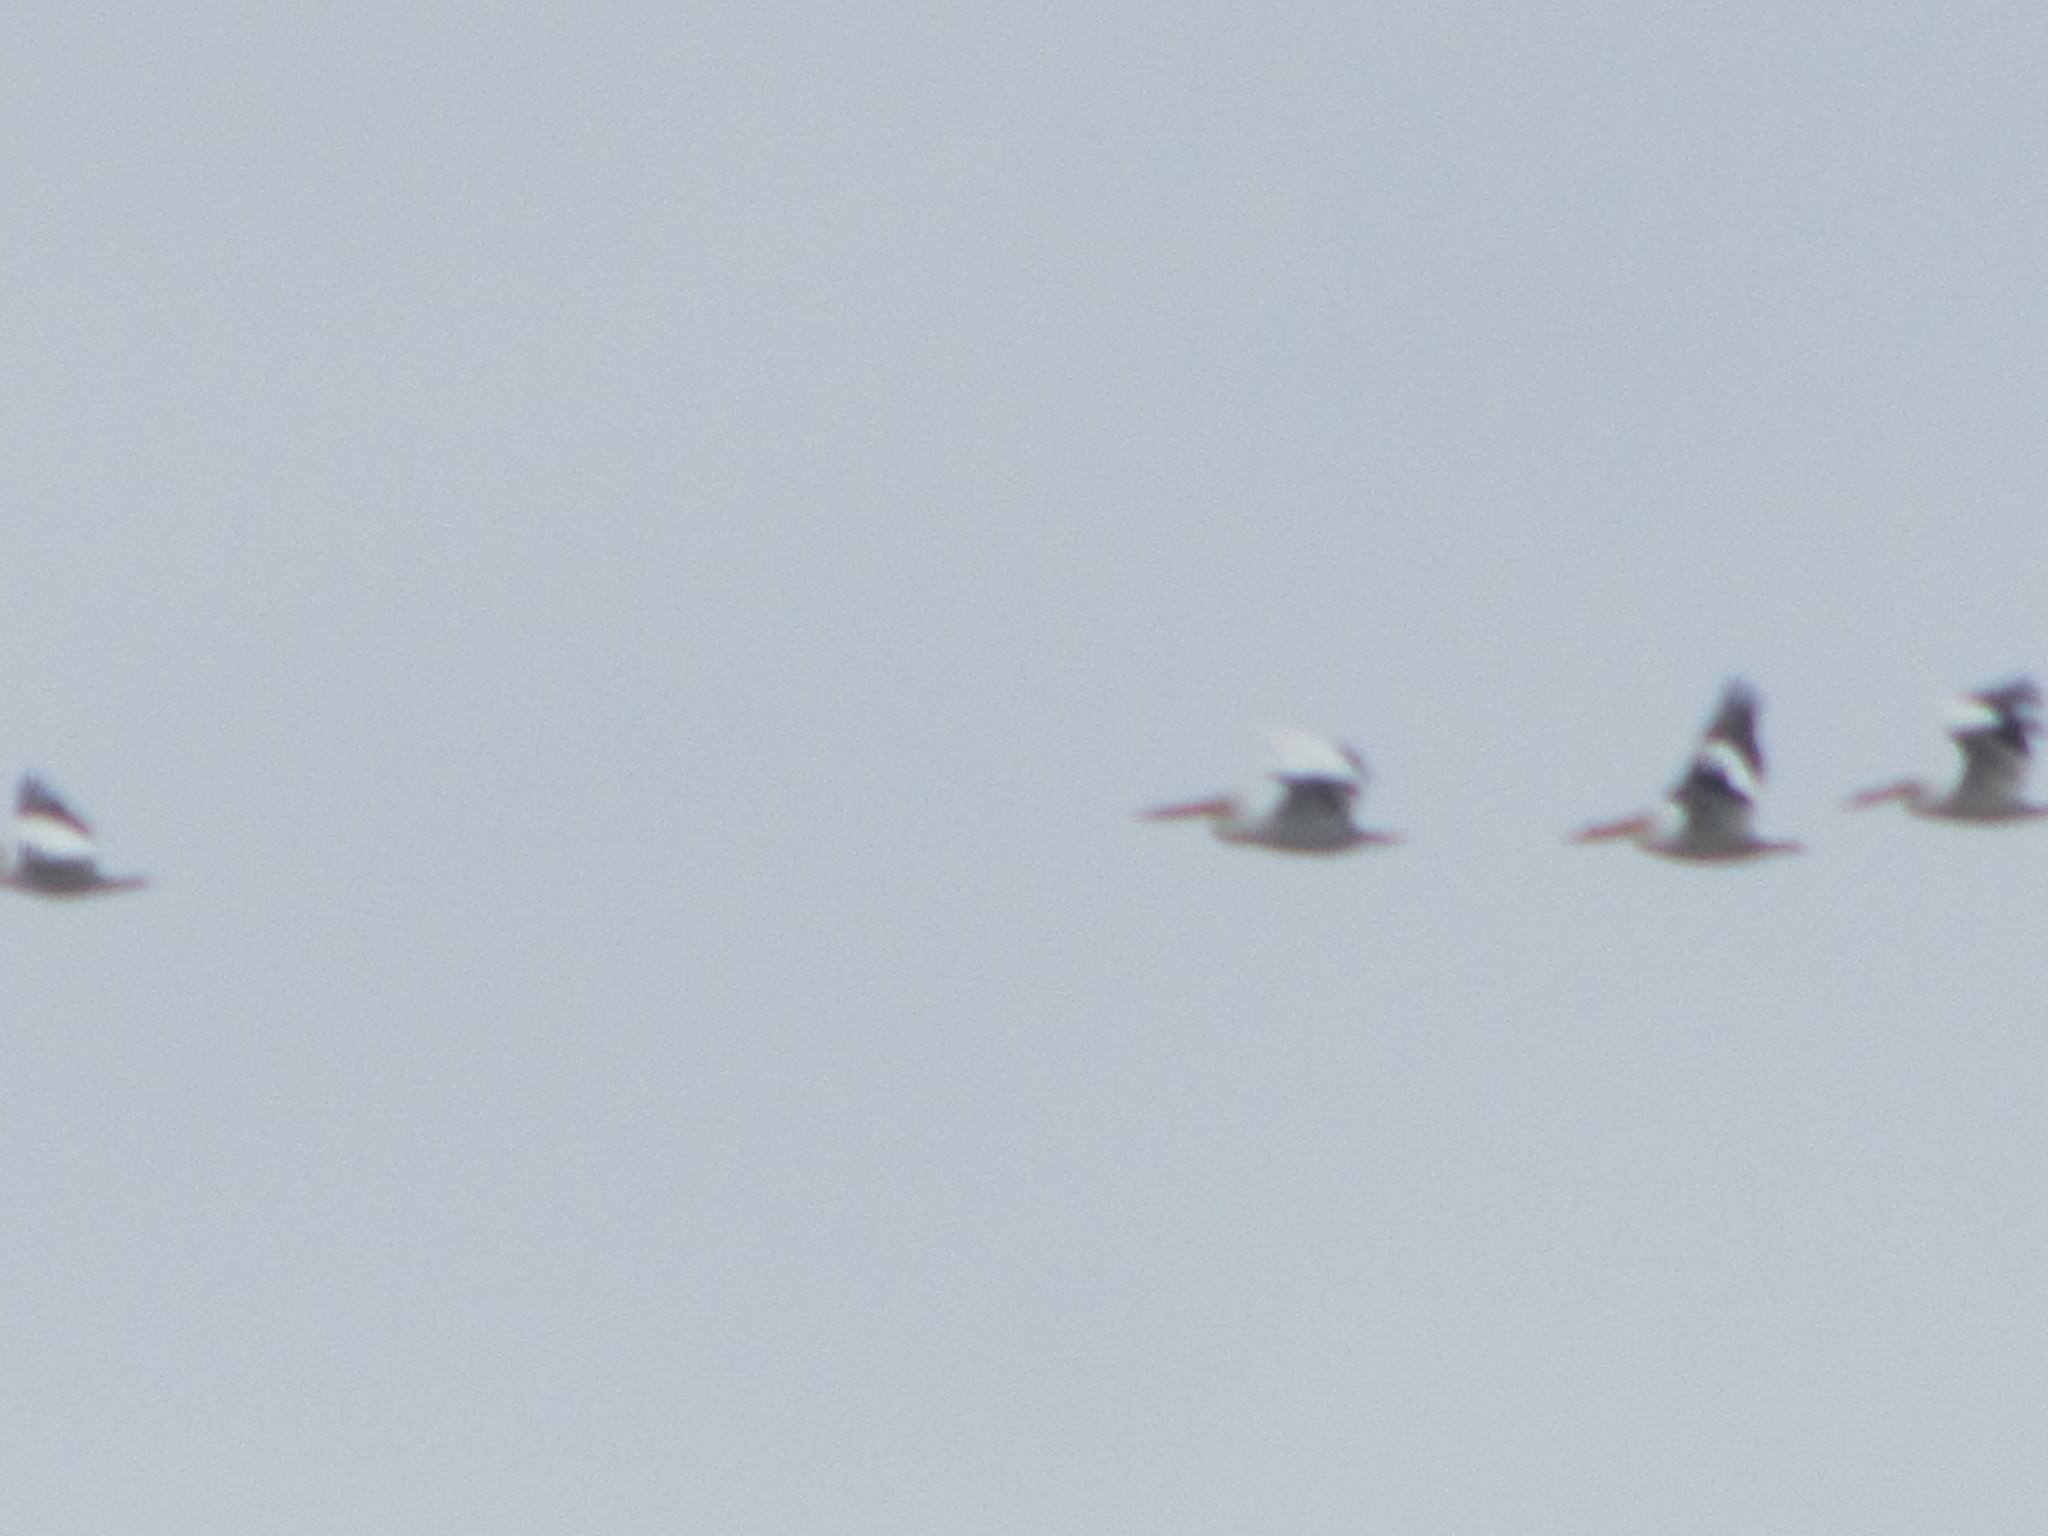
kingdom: Animalia
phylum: Chordata
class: Aves
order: Pelecaniformes
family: Pelecanidae
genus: Pelecanus
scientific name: Pelecanus erythrorhynchos
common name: American white pelican
